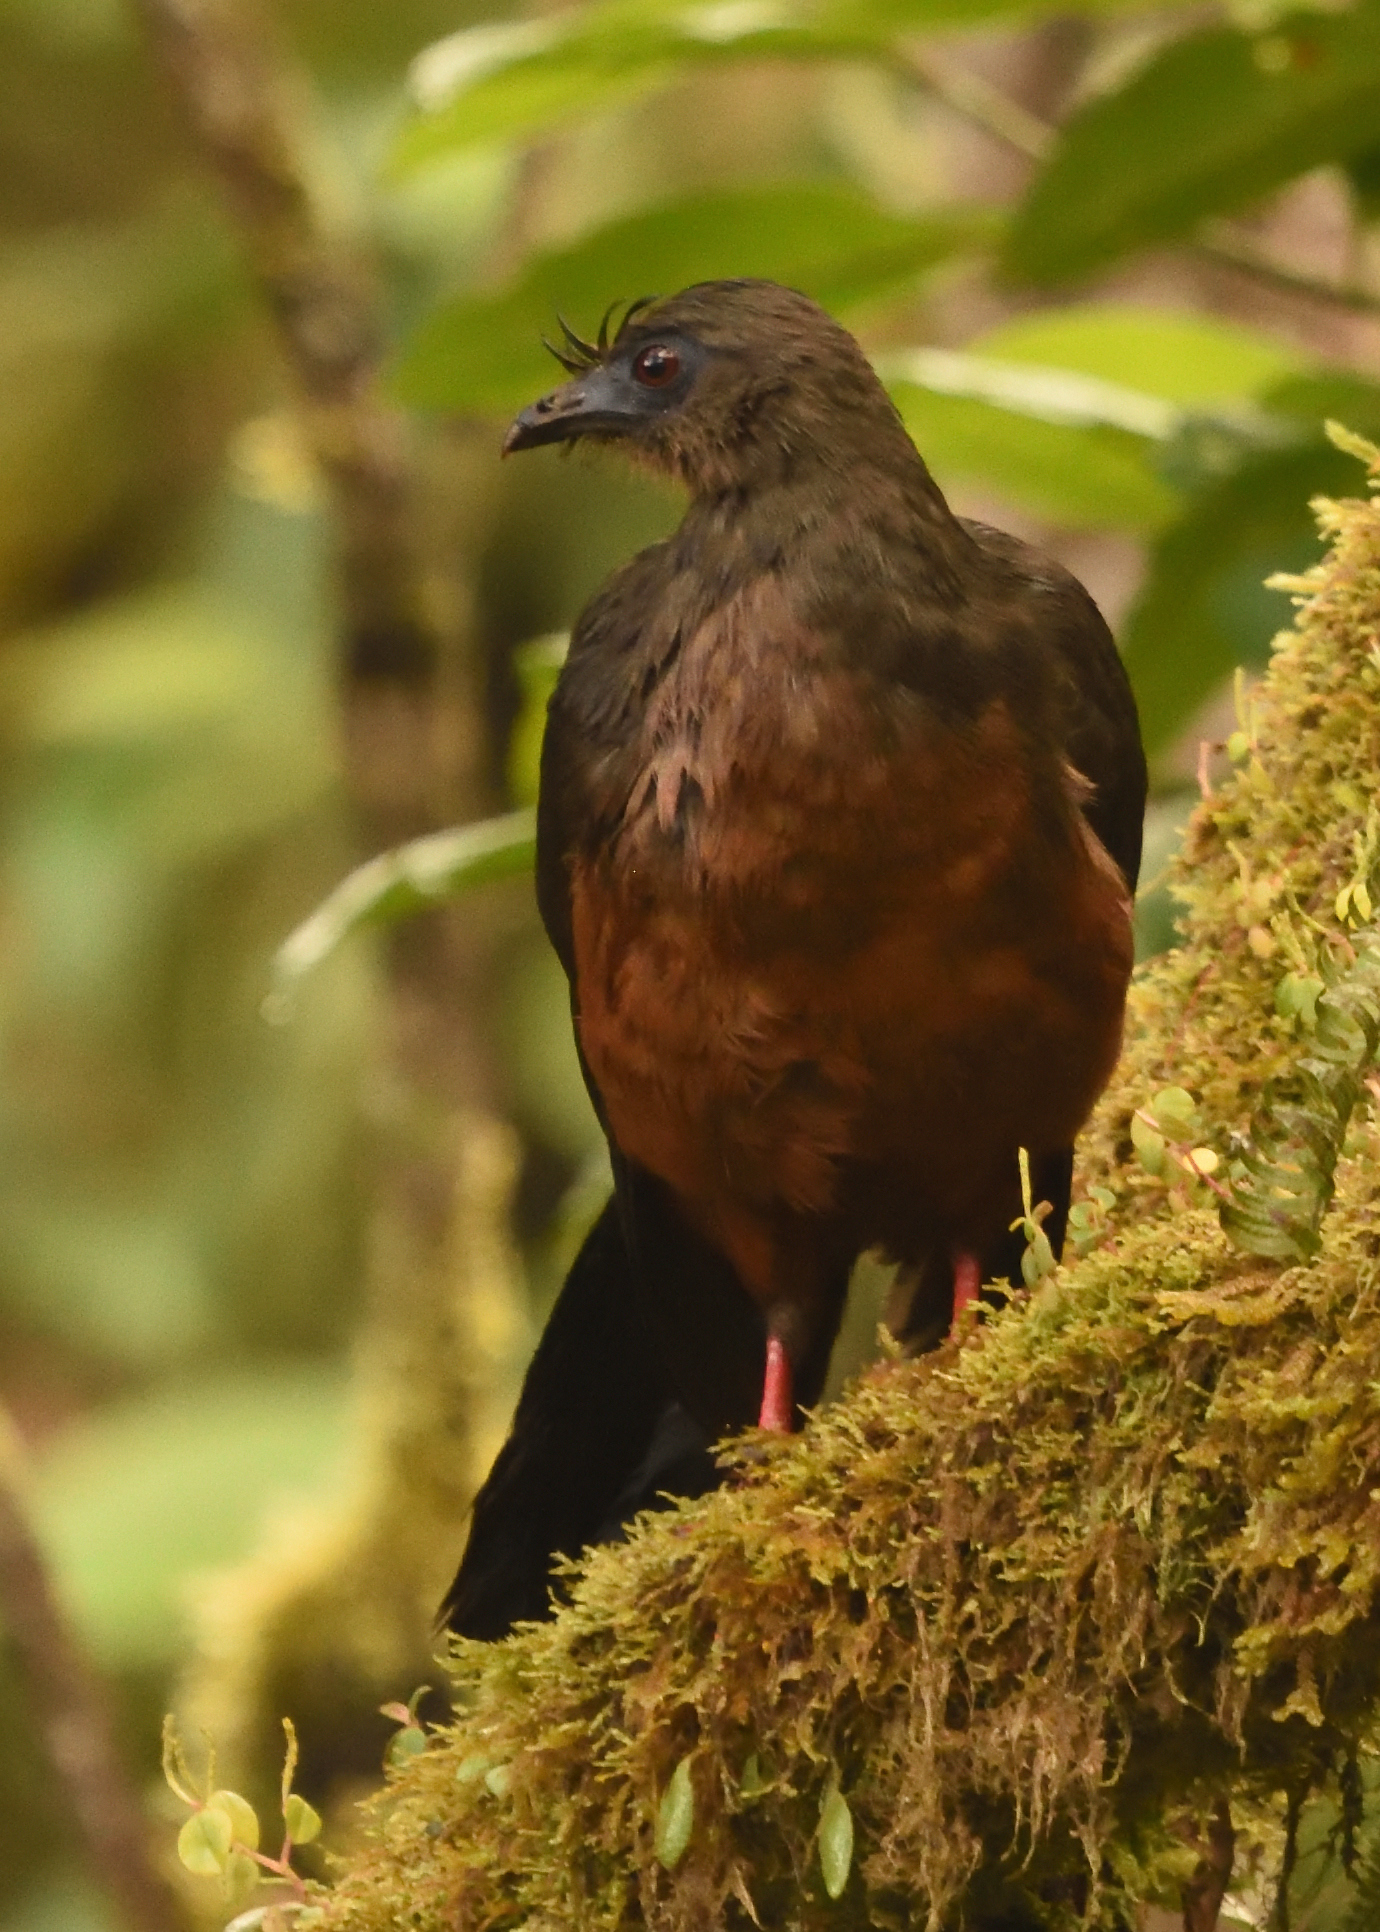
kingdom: Animalia
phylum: Chordata
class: Aves
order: Galliformes
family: Cracidae
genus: Chamaepetes
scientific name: Chamaepetes goudotii
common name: Sickle-winged guan
